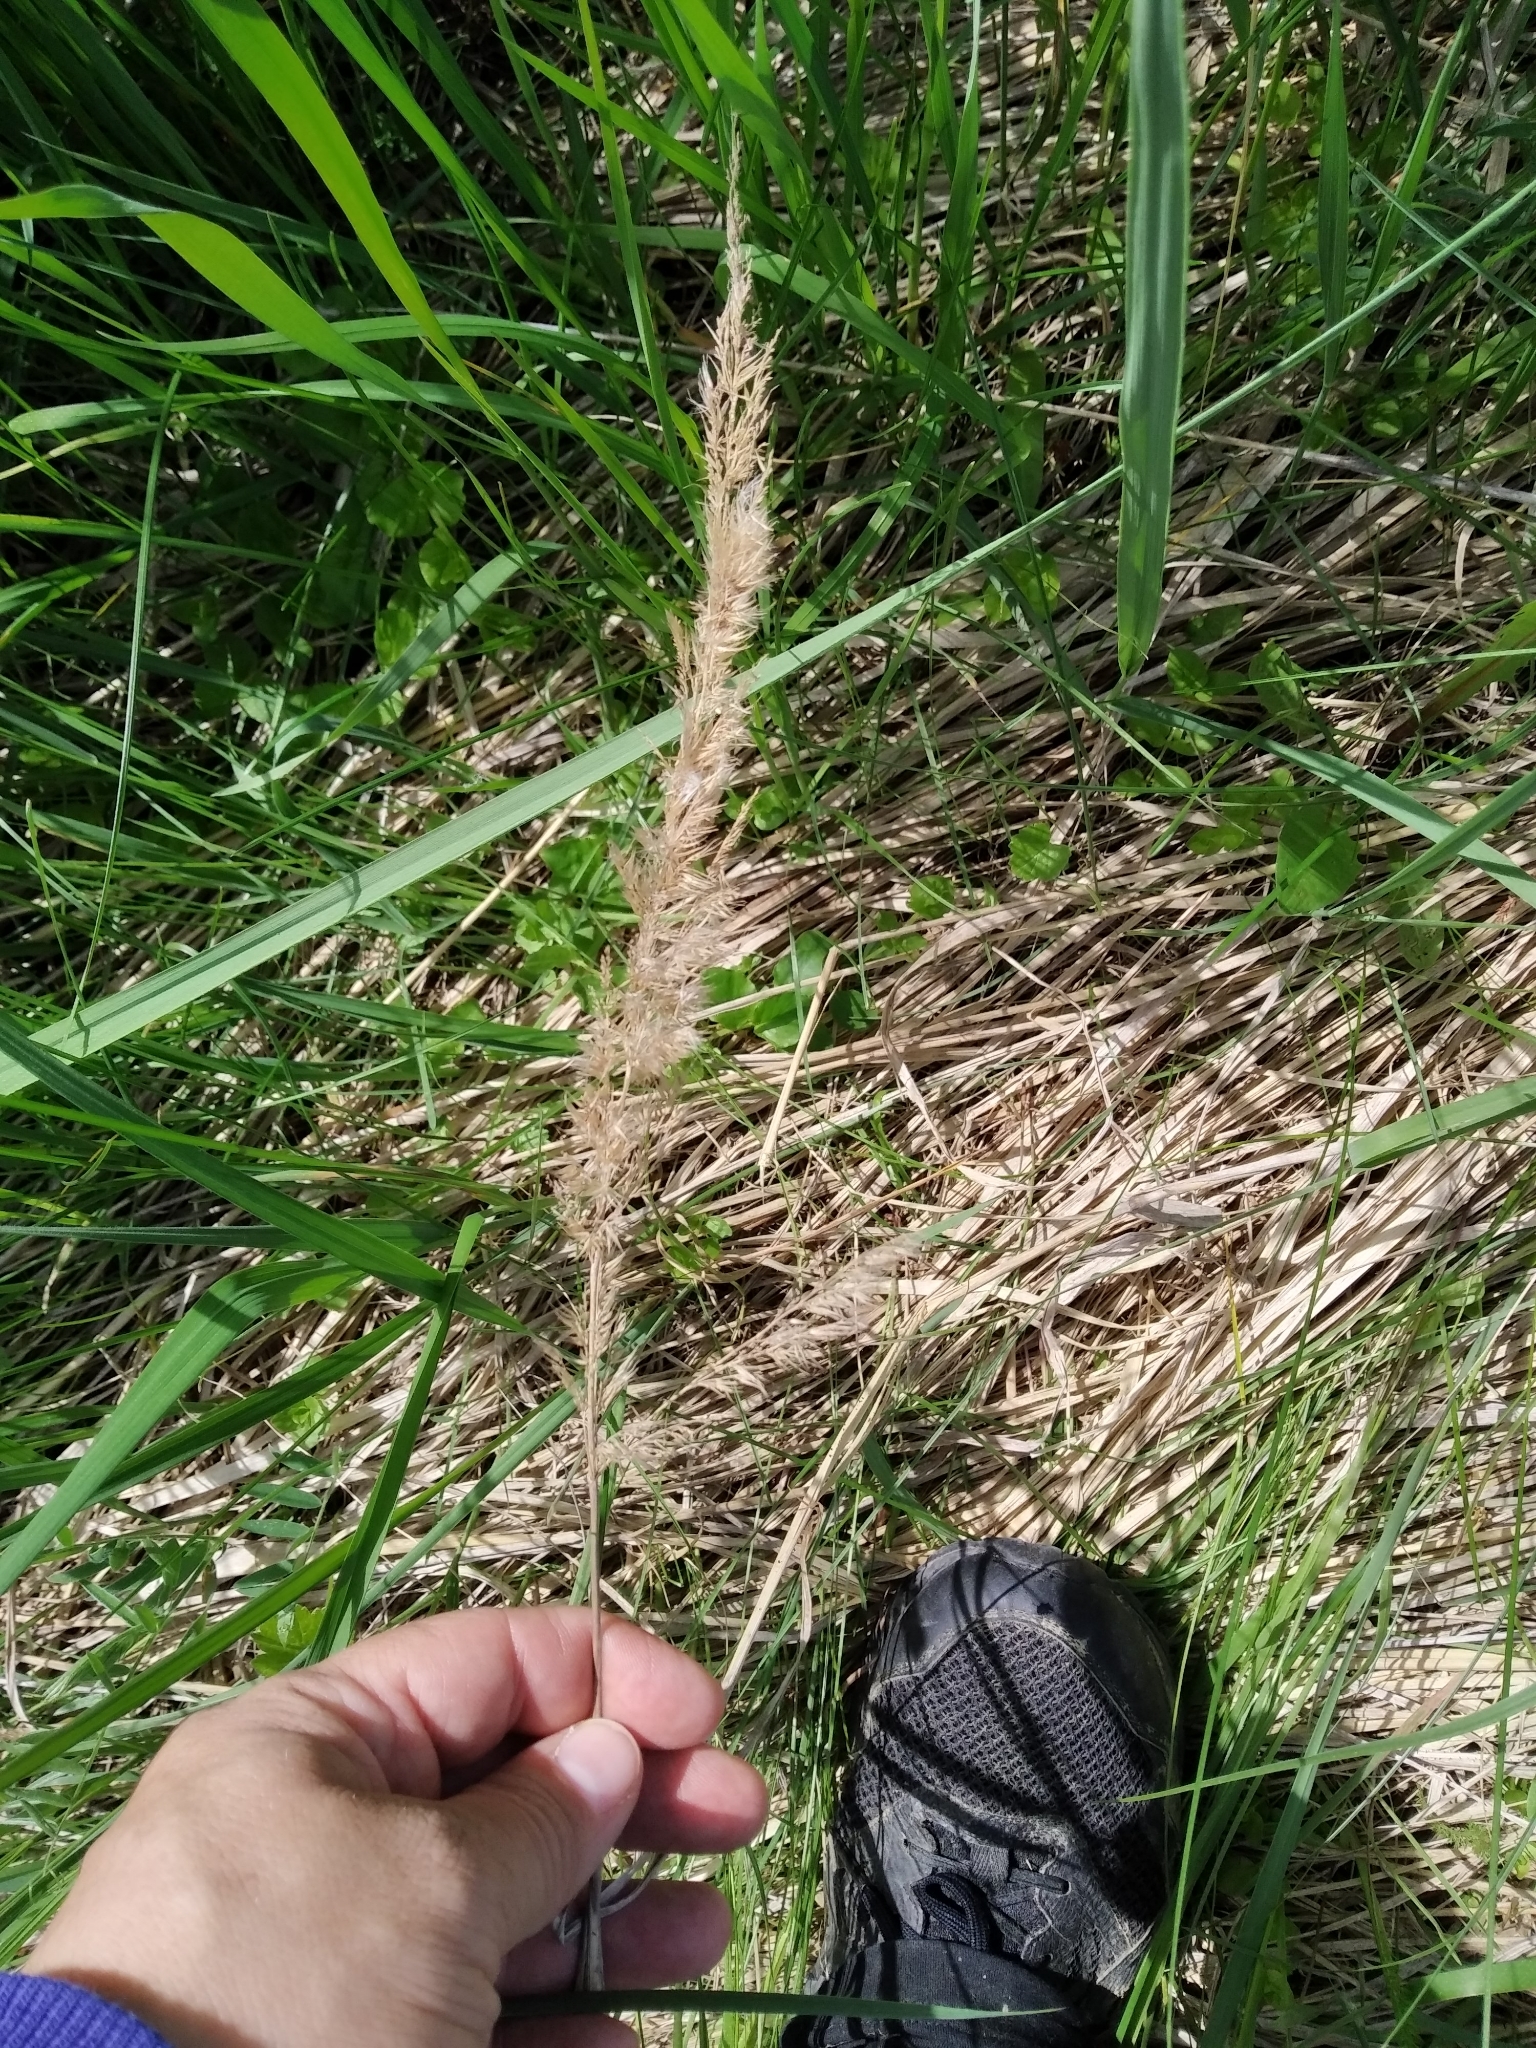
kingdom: Plantae
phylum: Tracheophyta
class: Liliopsida
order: Poales
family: Poaceae
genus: Calamagrostis
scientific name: Calamagrostis epigejos
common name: Wood small-reed
